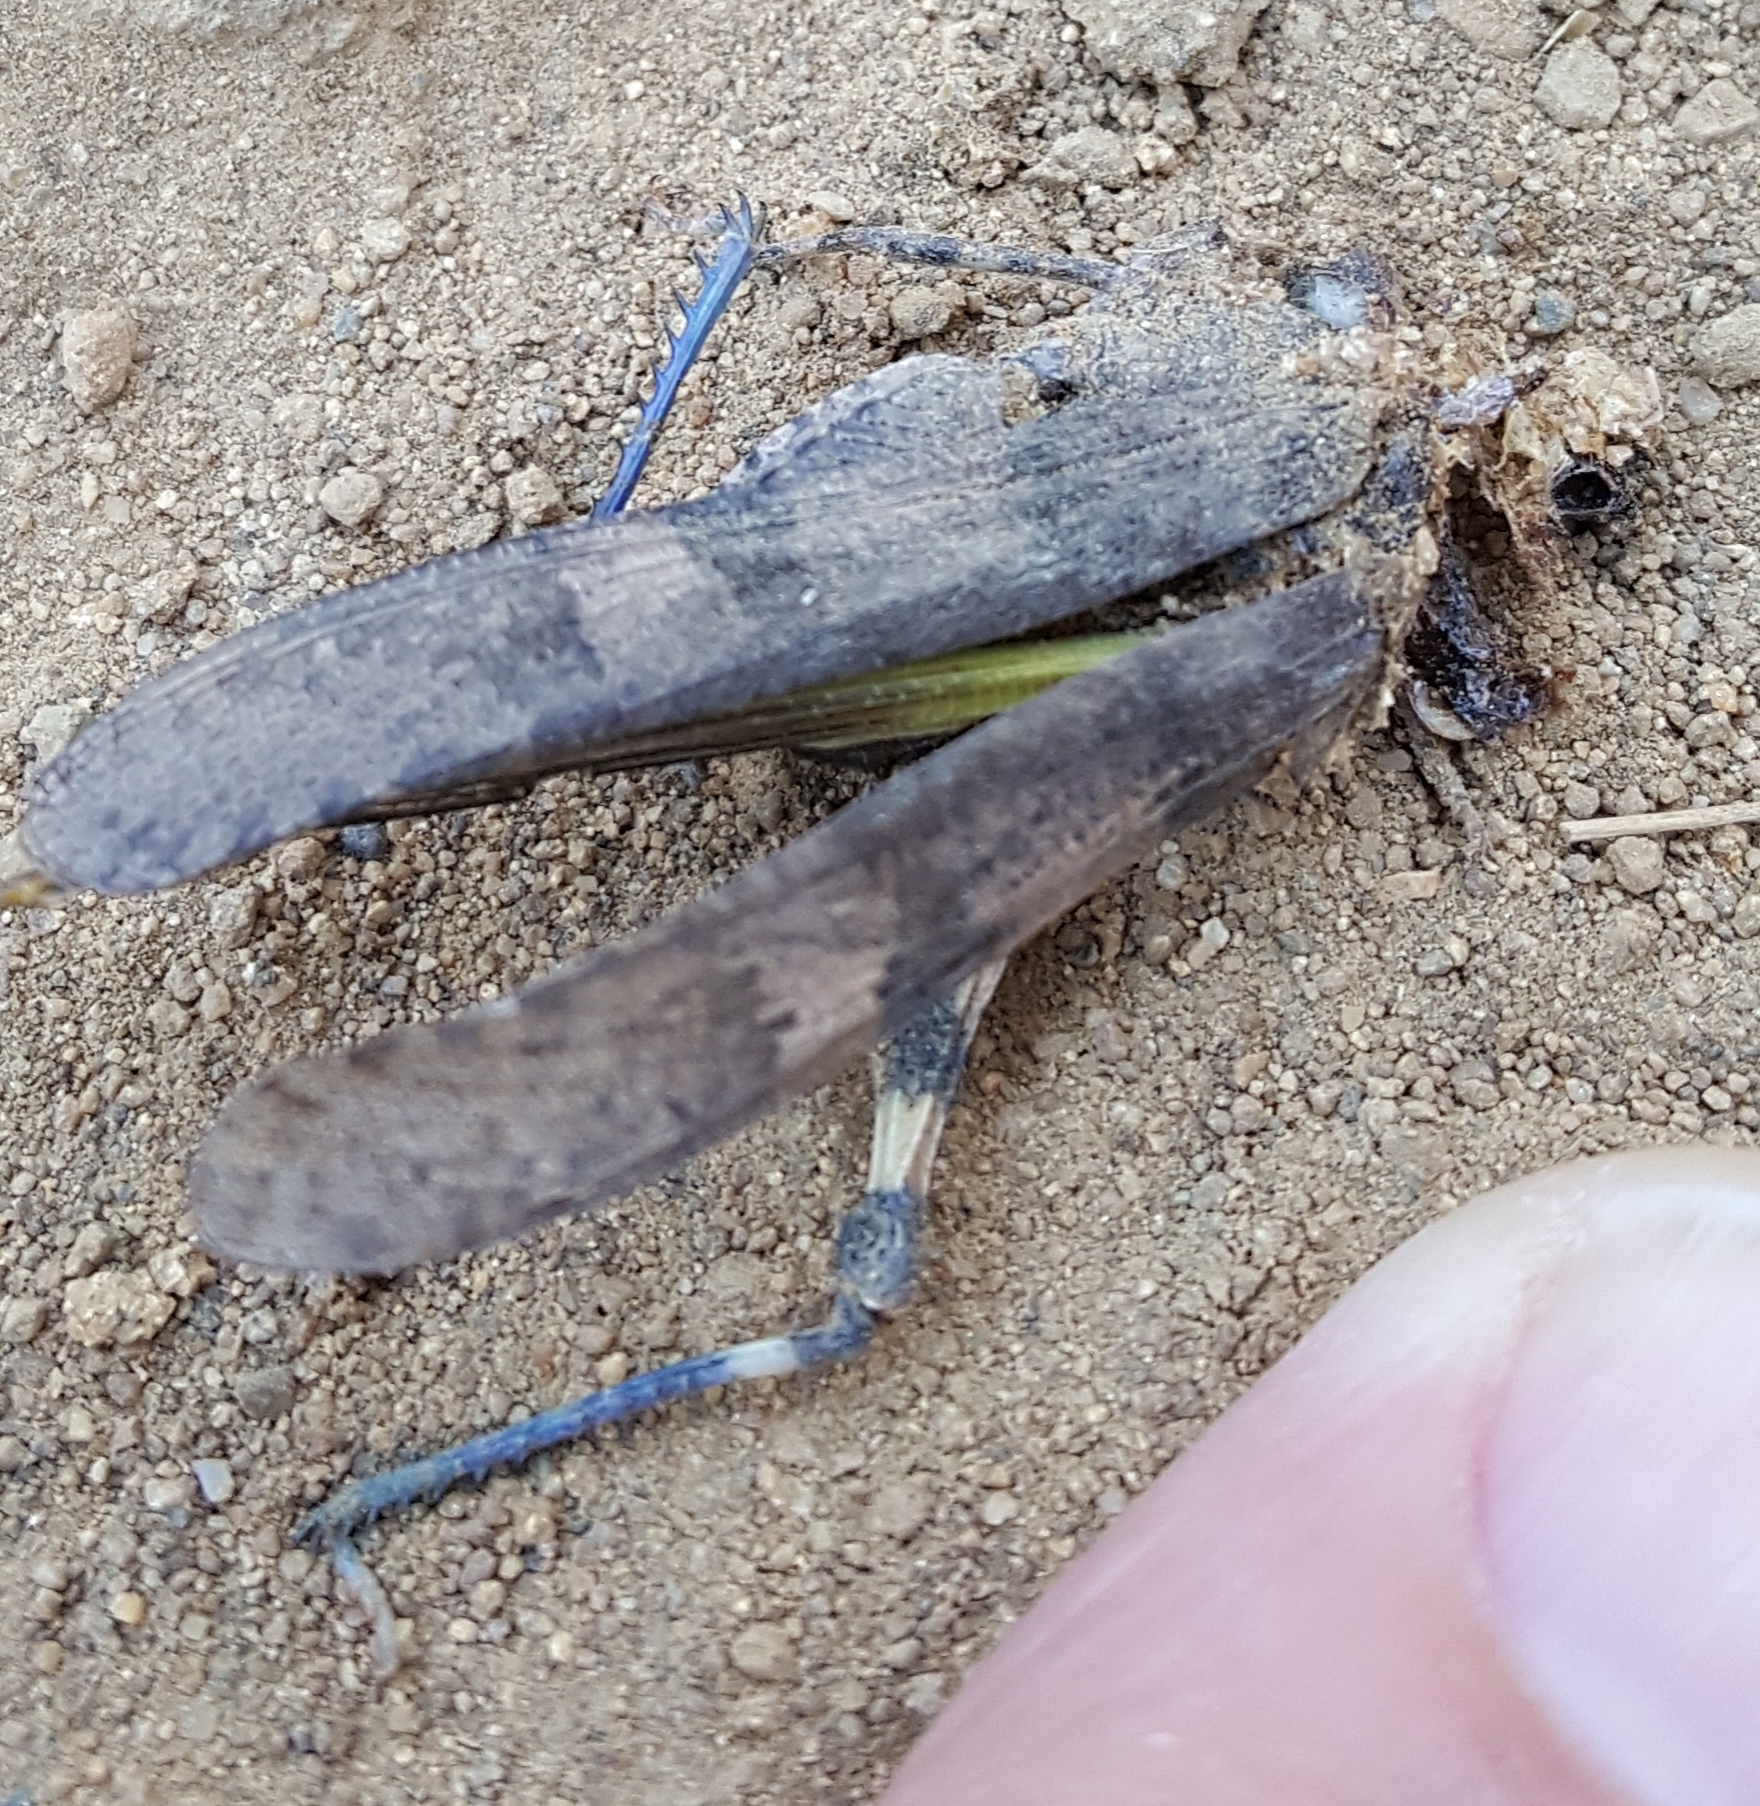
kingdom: Animalia
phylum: Arthropoda
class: Insecta
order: Orthoptera
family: Acrididae
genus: Trimerotropis
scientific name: Trimerotropis fontana
